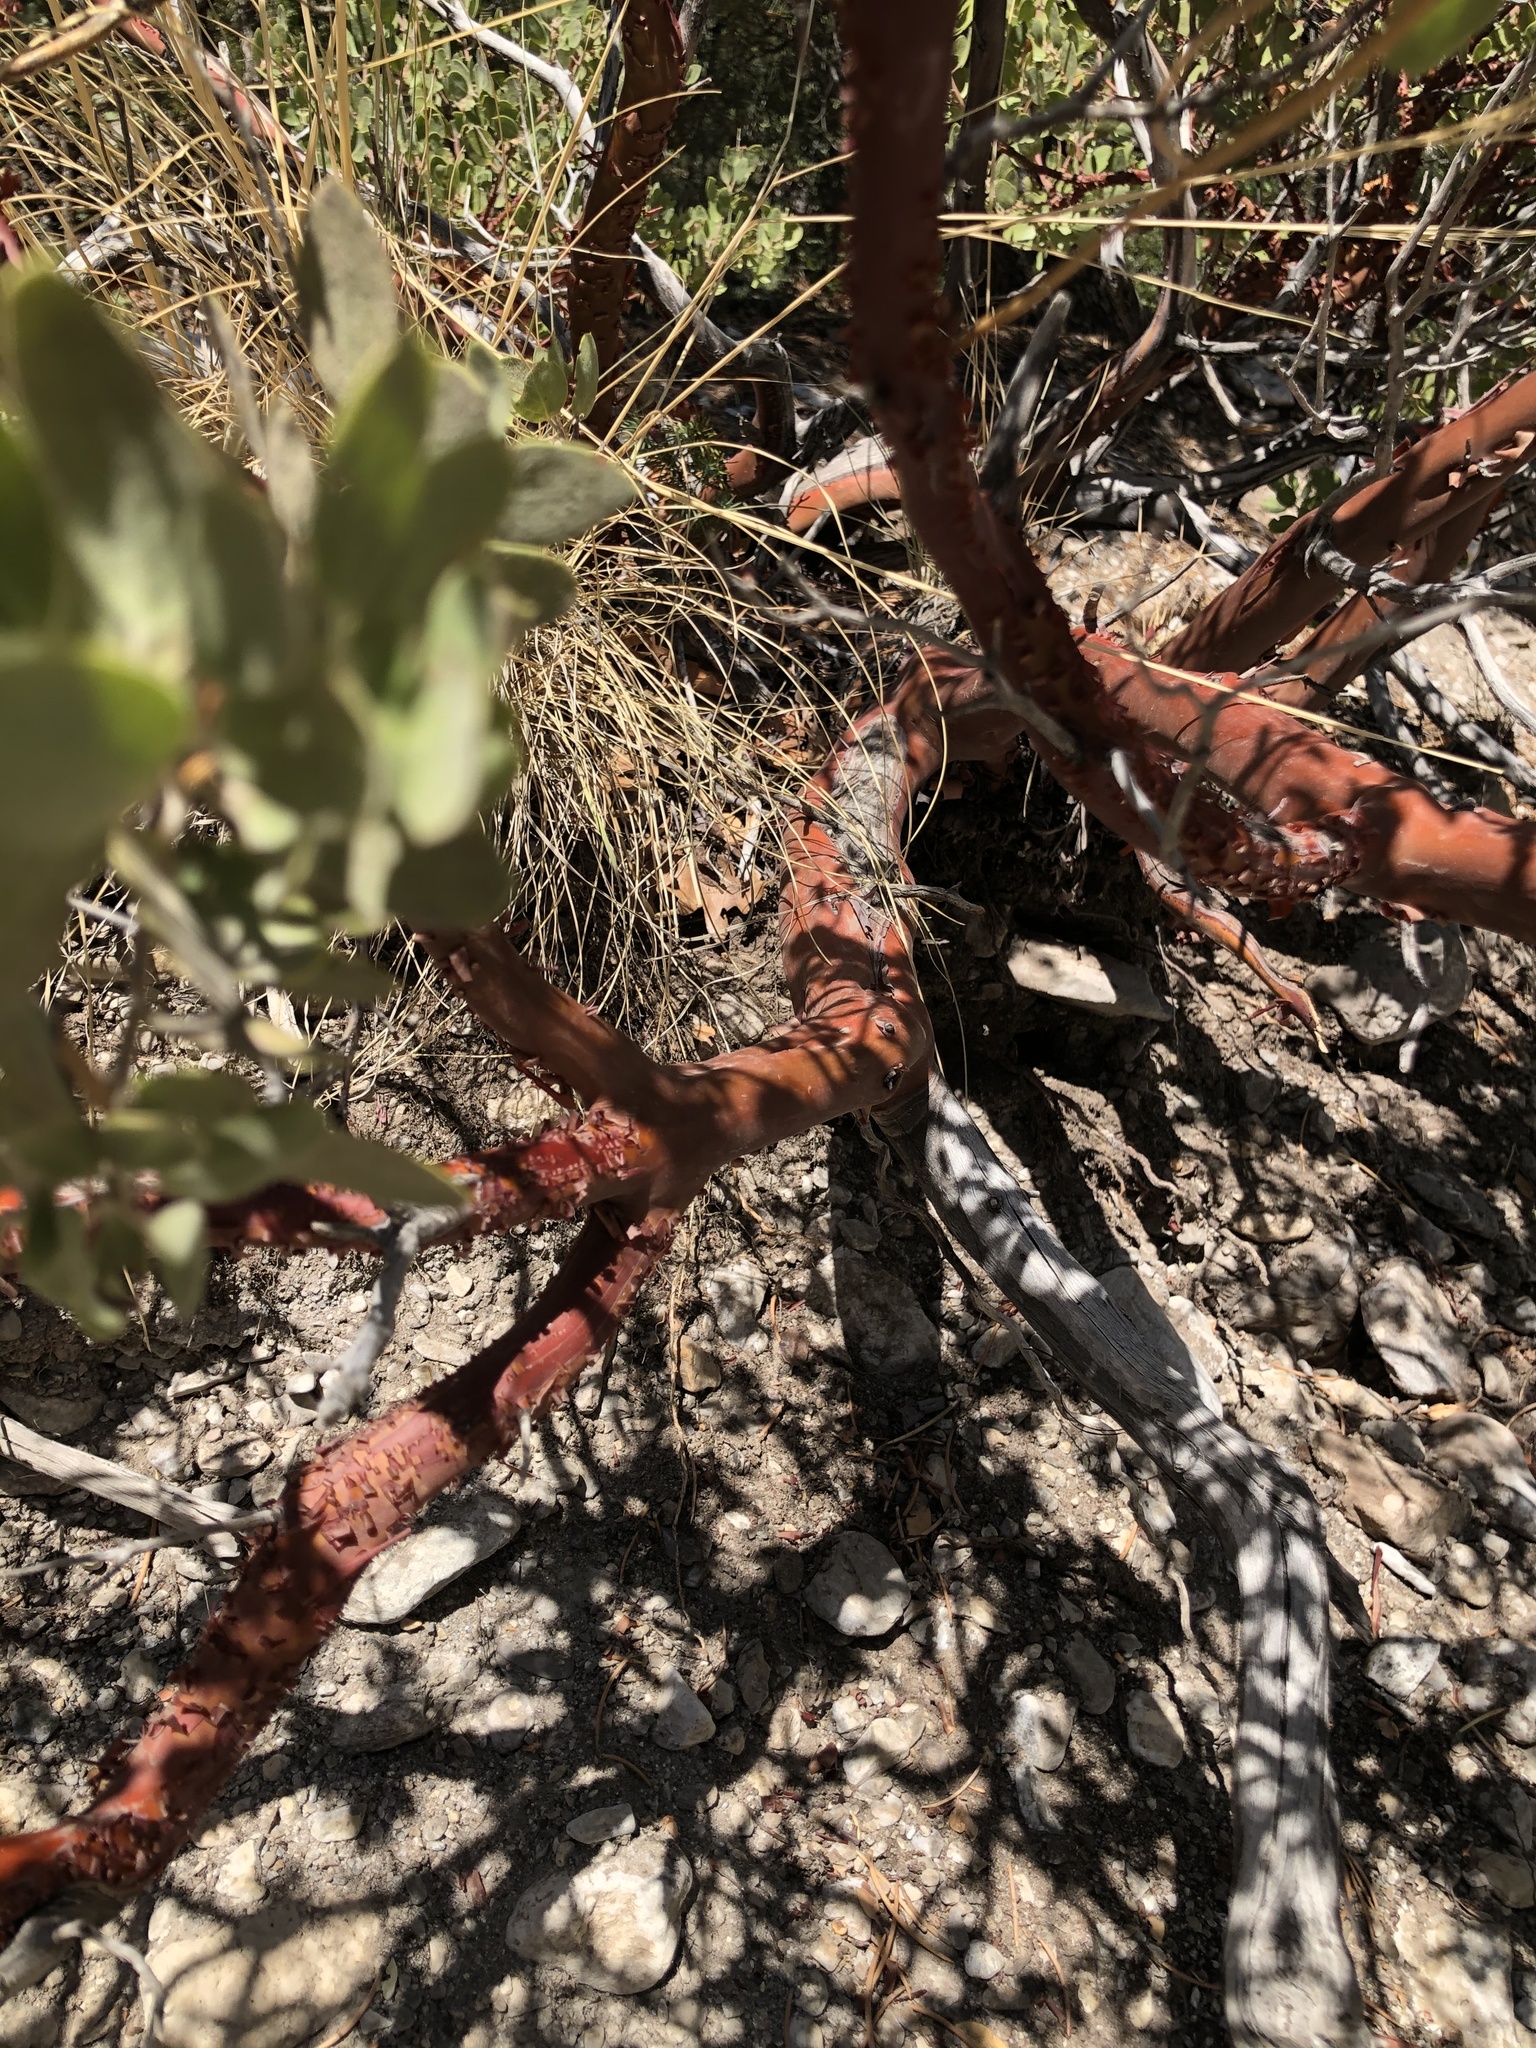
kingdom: Plantae
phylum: Tracheophyta
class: Magnoliopsida
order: Ericales
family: Ericaceae
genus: Arctostaphylos
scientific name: Arctostaphylos pungens
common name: Mexican manzanita
